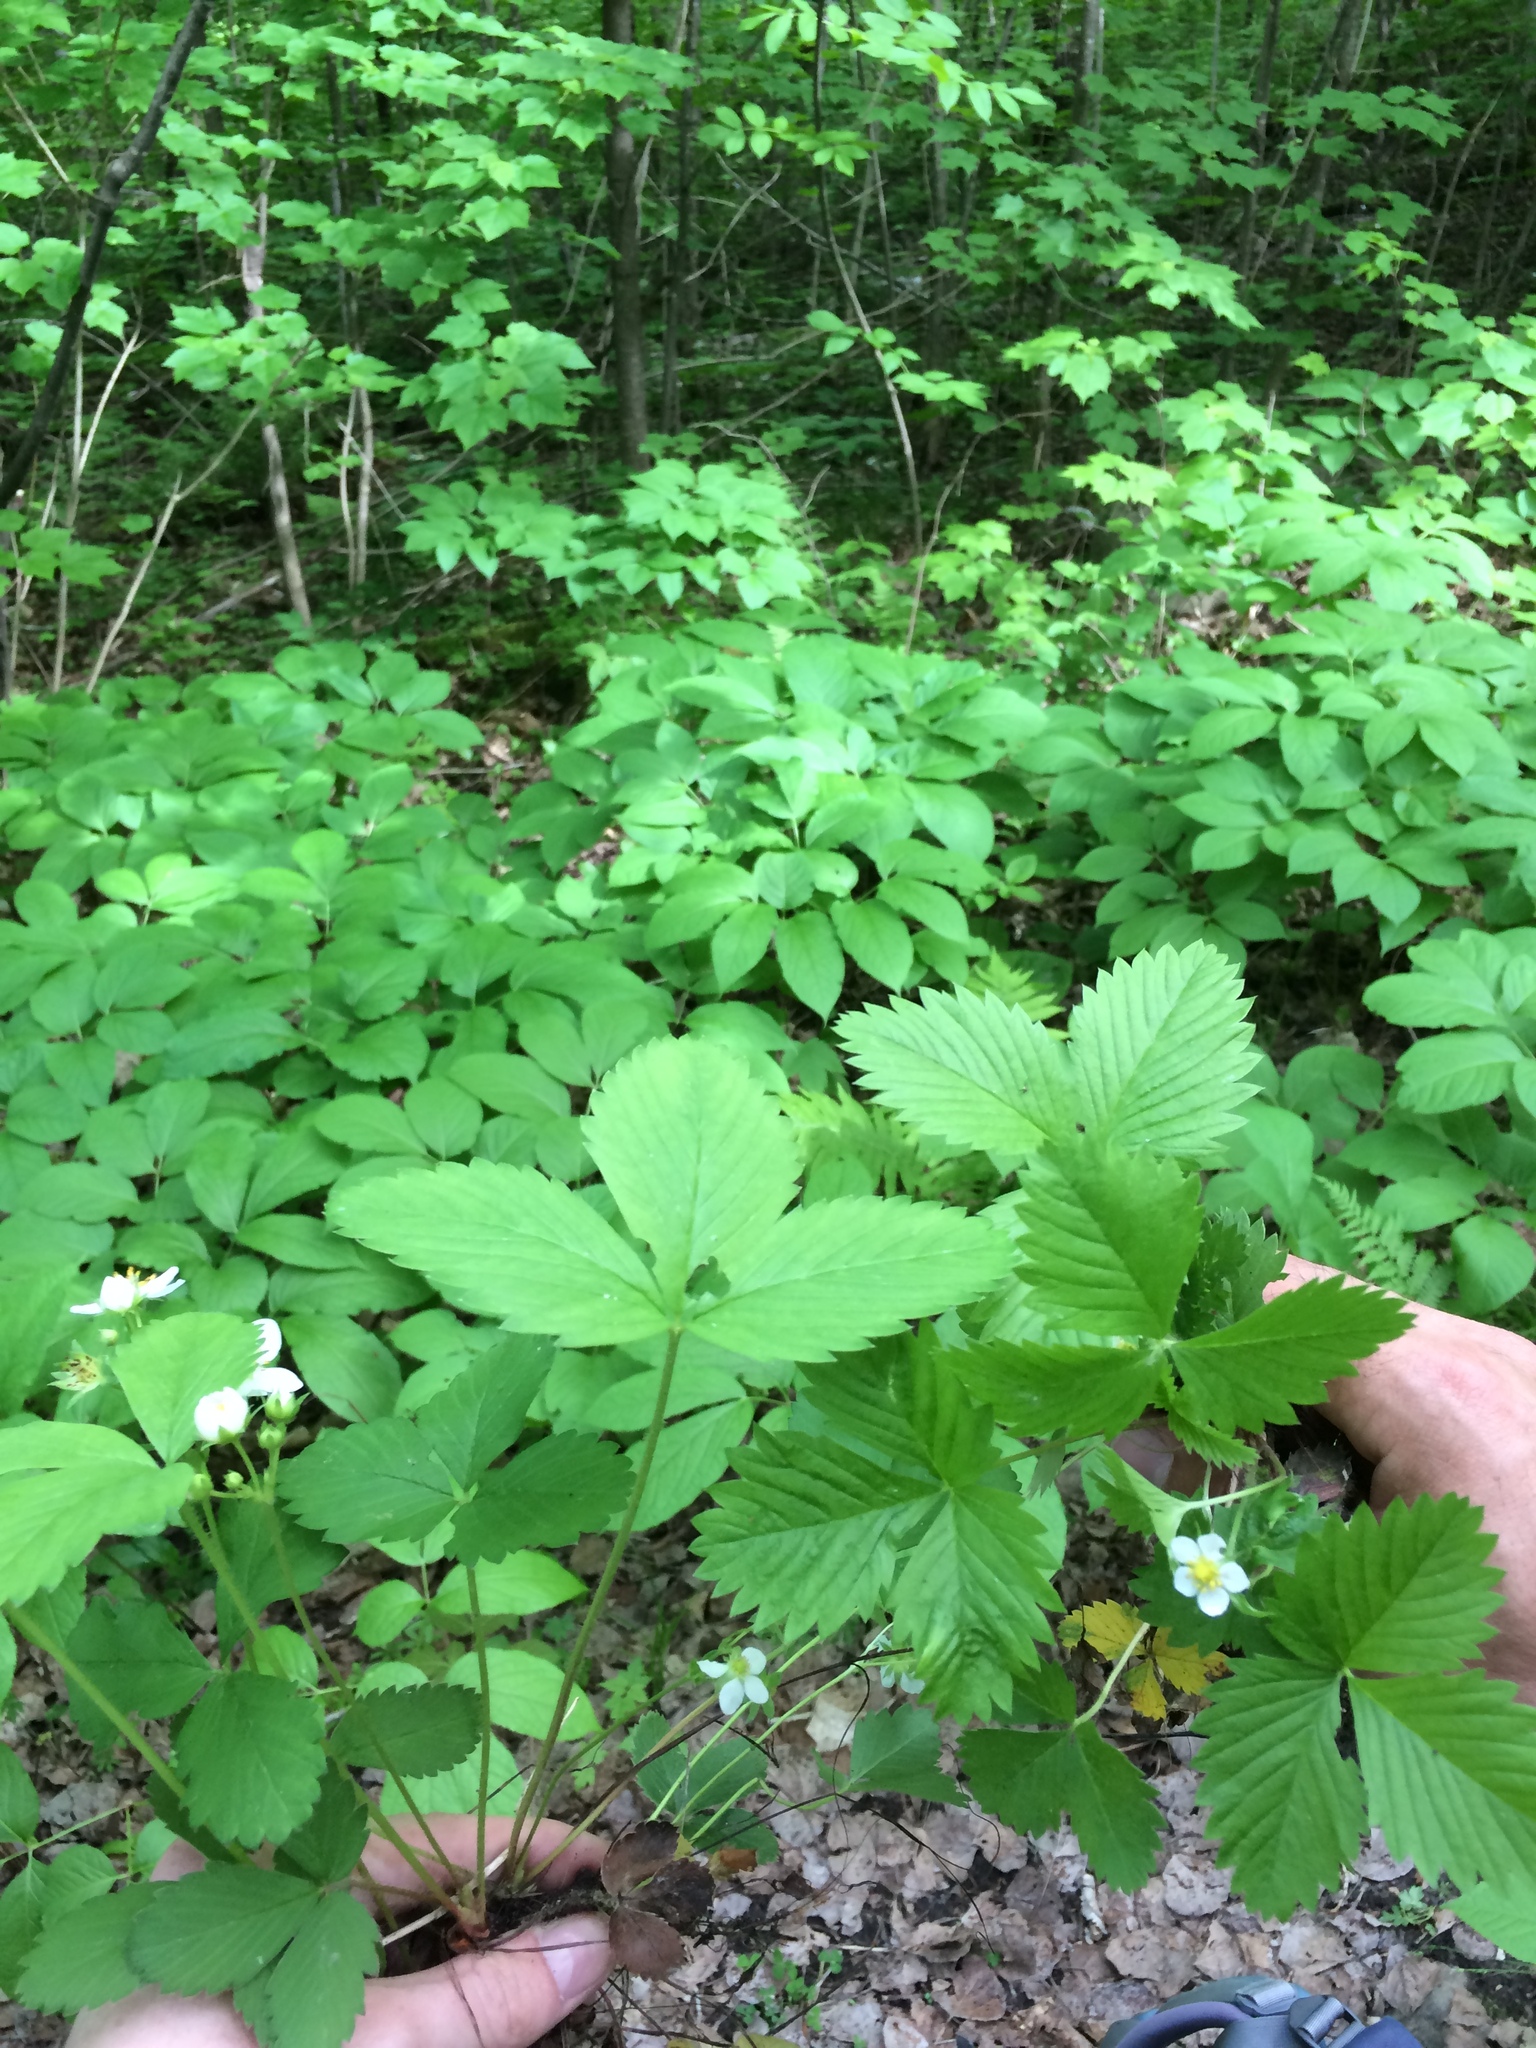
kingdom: Plantae
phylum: Tracheophyta
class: Magnoliopsida
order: Rosales
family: Rosaceae
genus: Fragaria
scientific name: Fragaria virginiana
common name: Thickleaved wild strawberry
